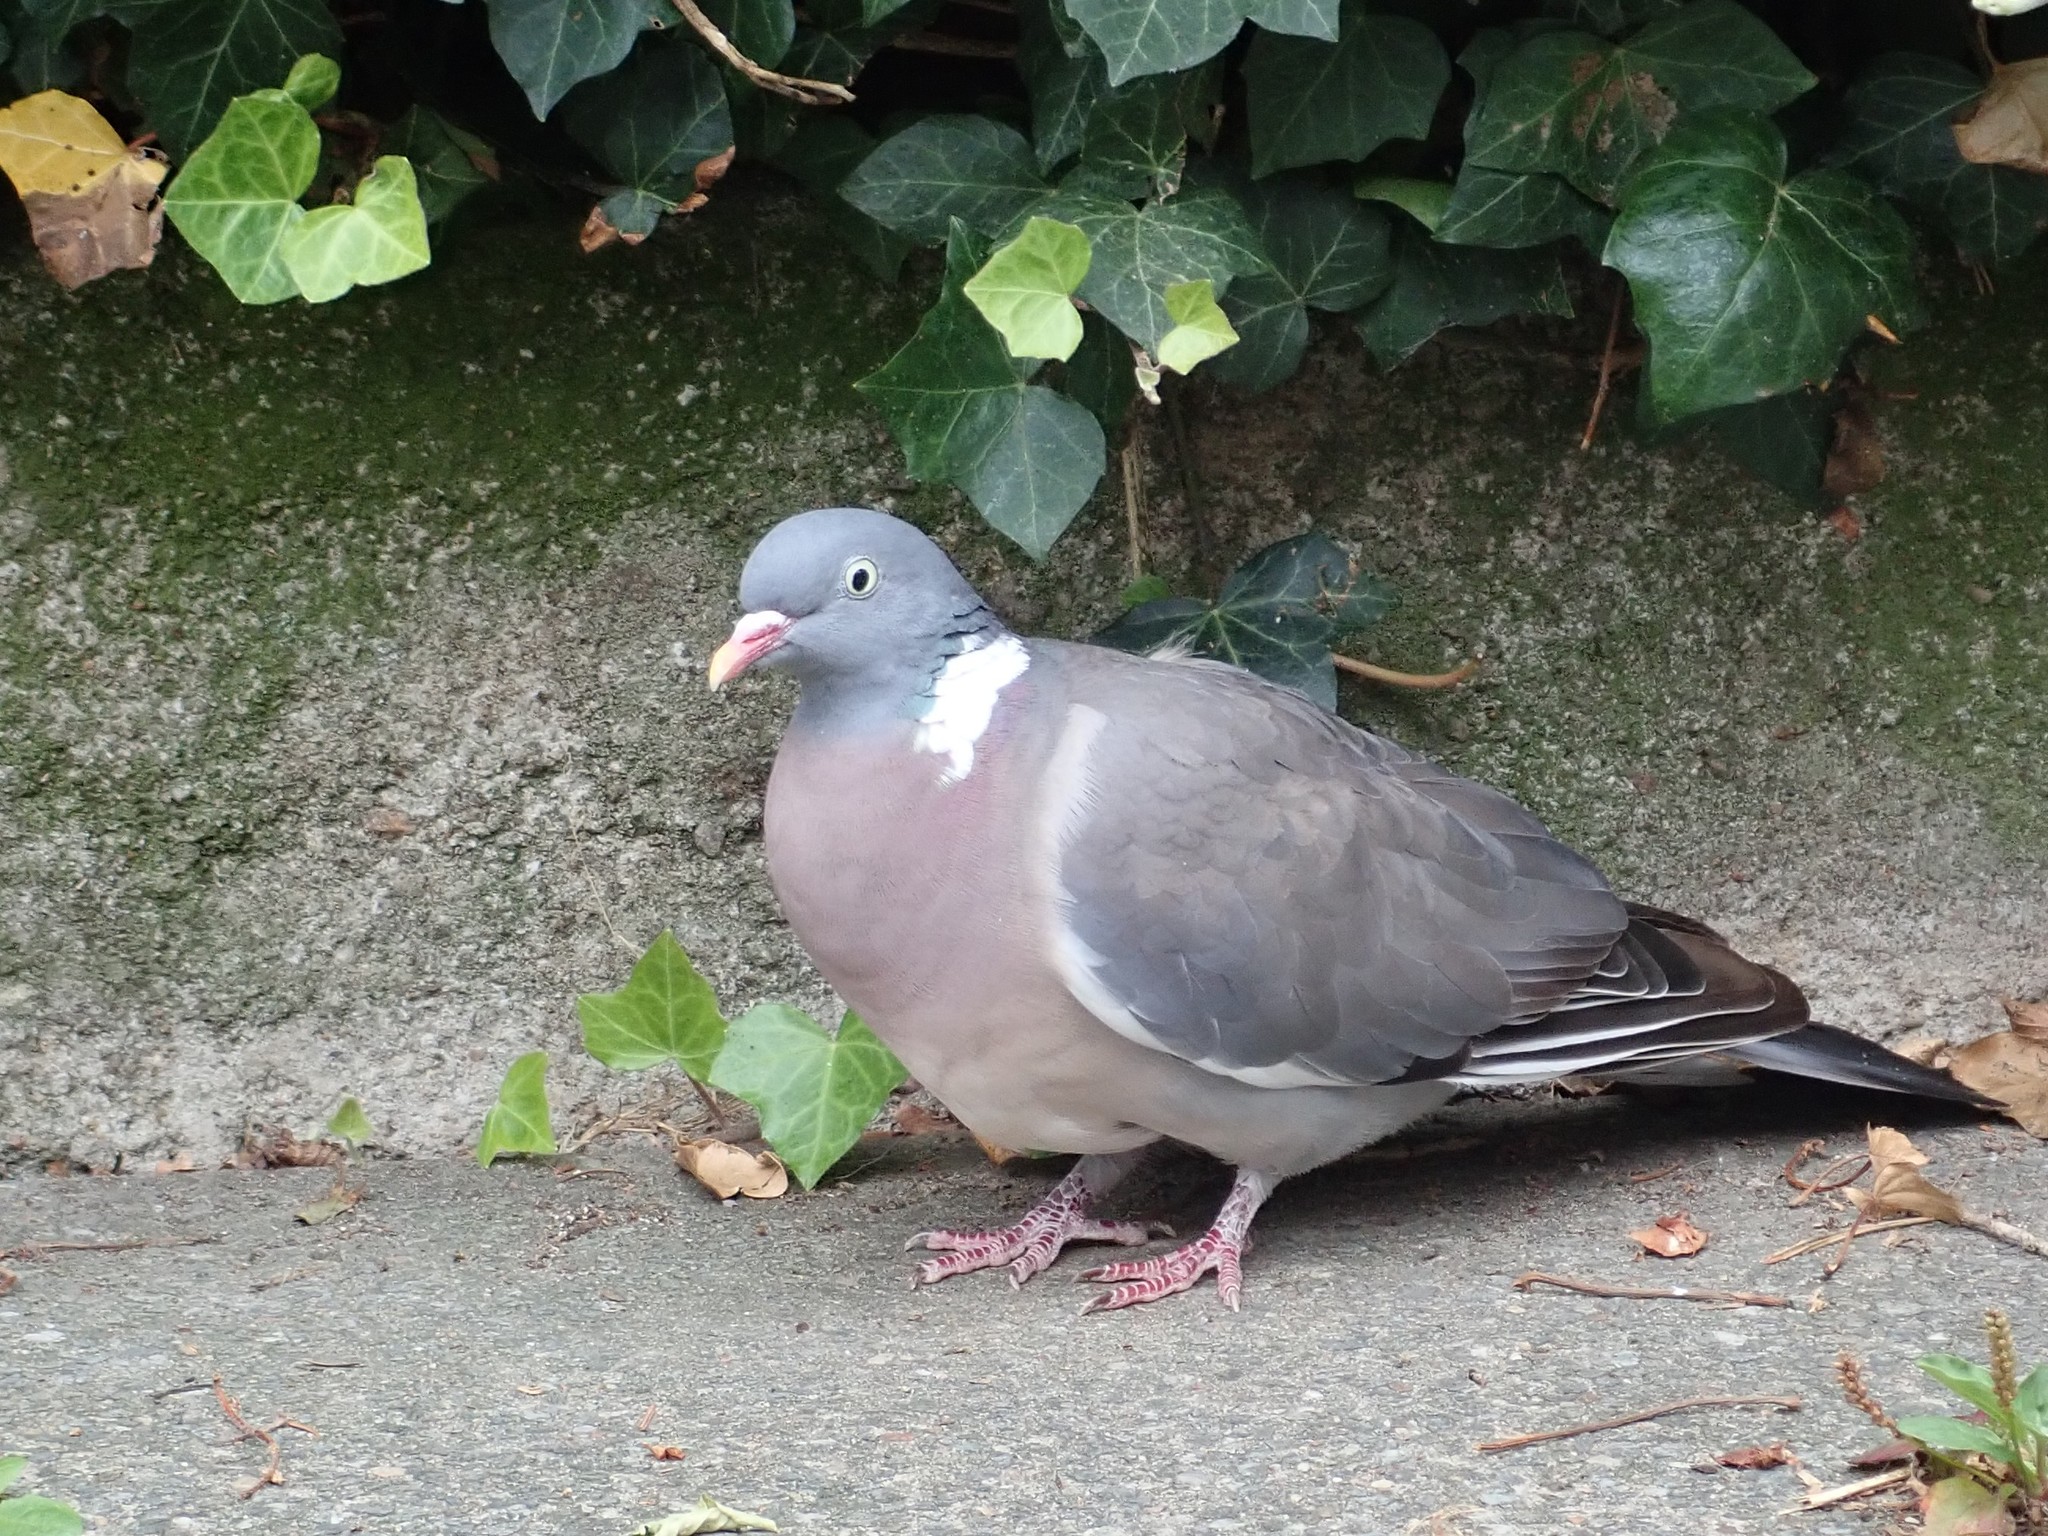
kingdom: Animalia
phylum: Chordata
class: Aves
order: Columbiformes
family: Columbidae
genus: Columba
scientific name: Columba palumbus
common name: Common wood pigeon
